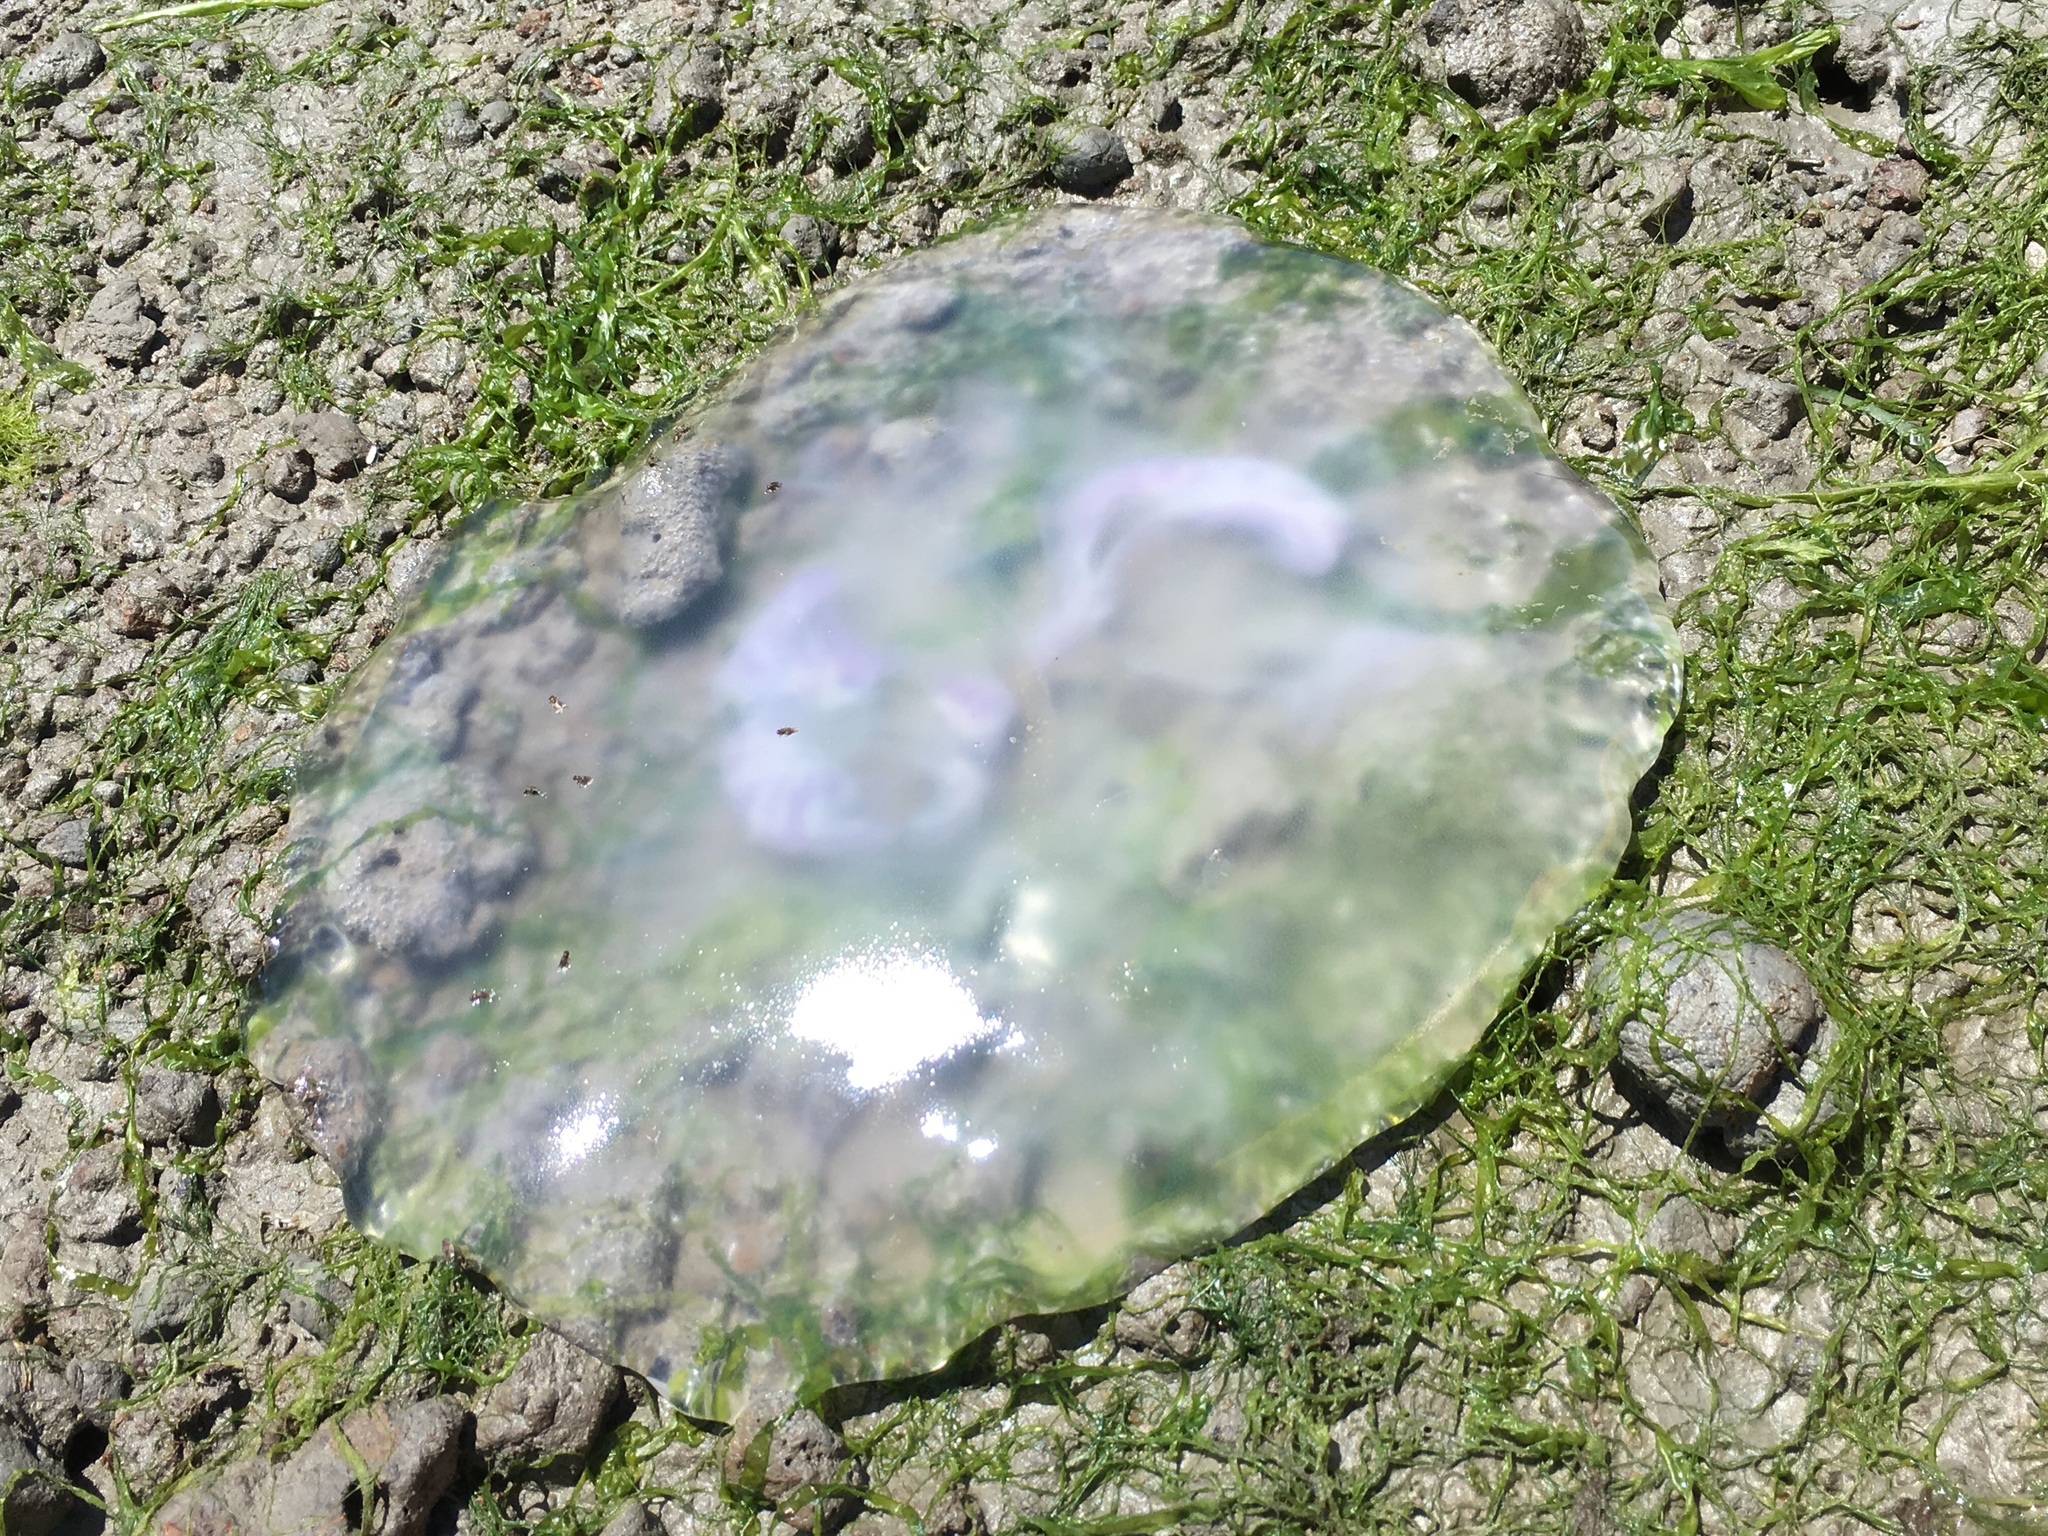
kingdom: Animalia
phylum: Cnidaria
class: Scyphozoa
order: Semaeostomeae
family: Ulmaridae
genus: Aurelia
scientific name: Aurelia labiata
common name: Pacific moon jelly
